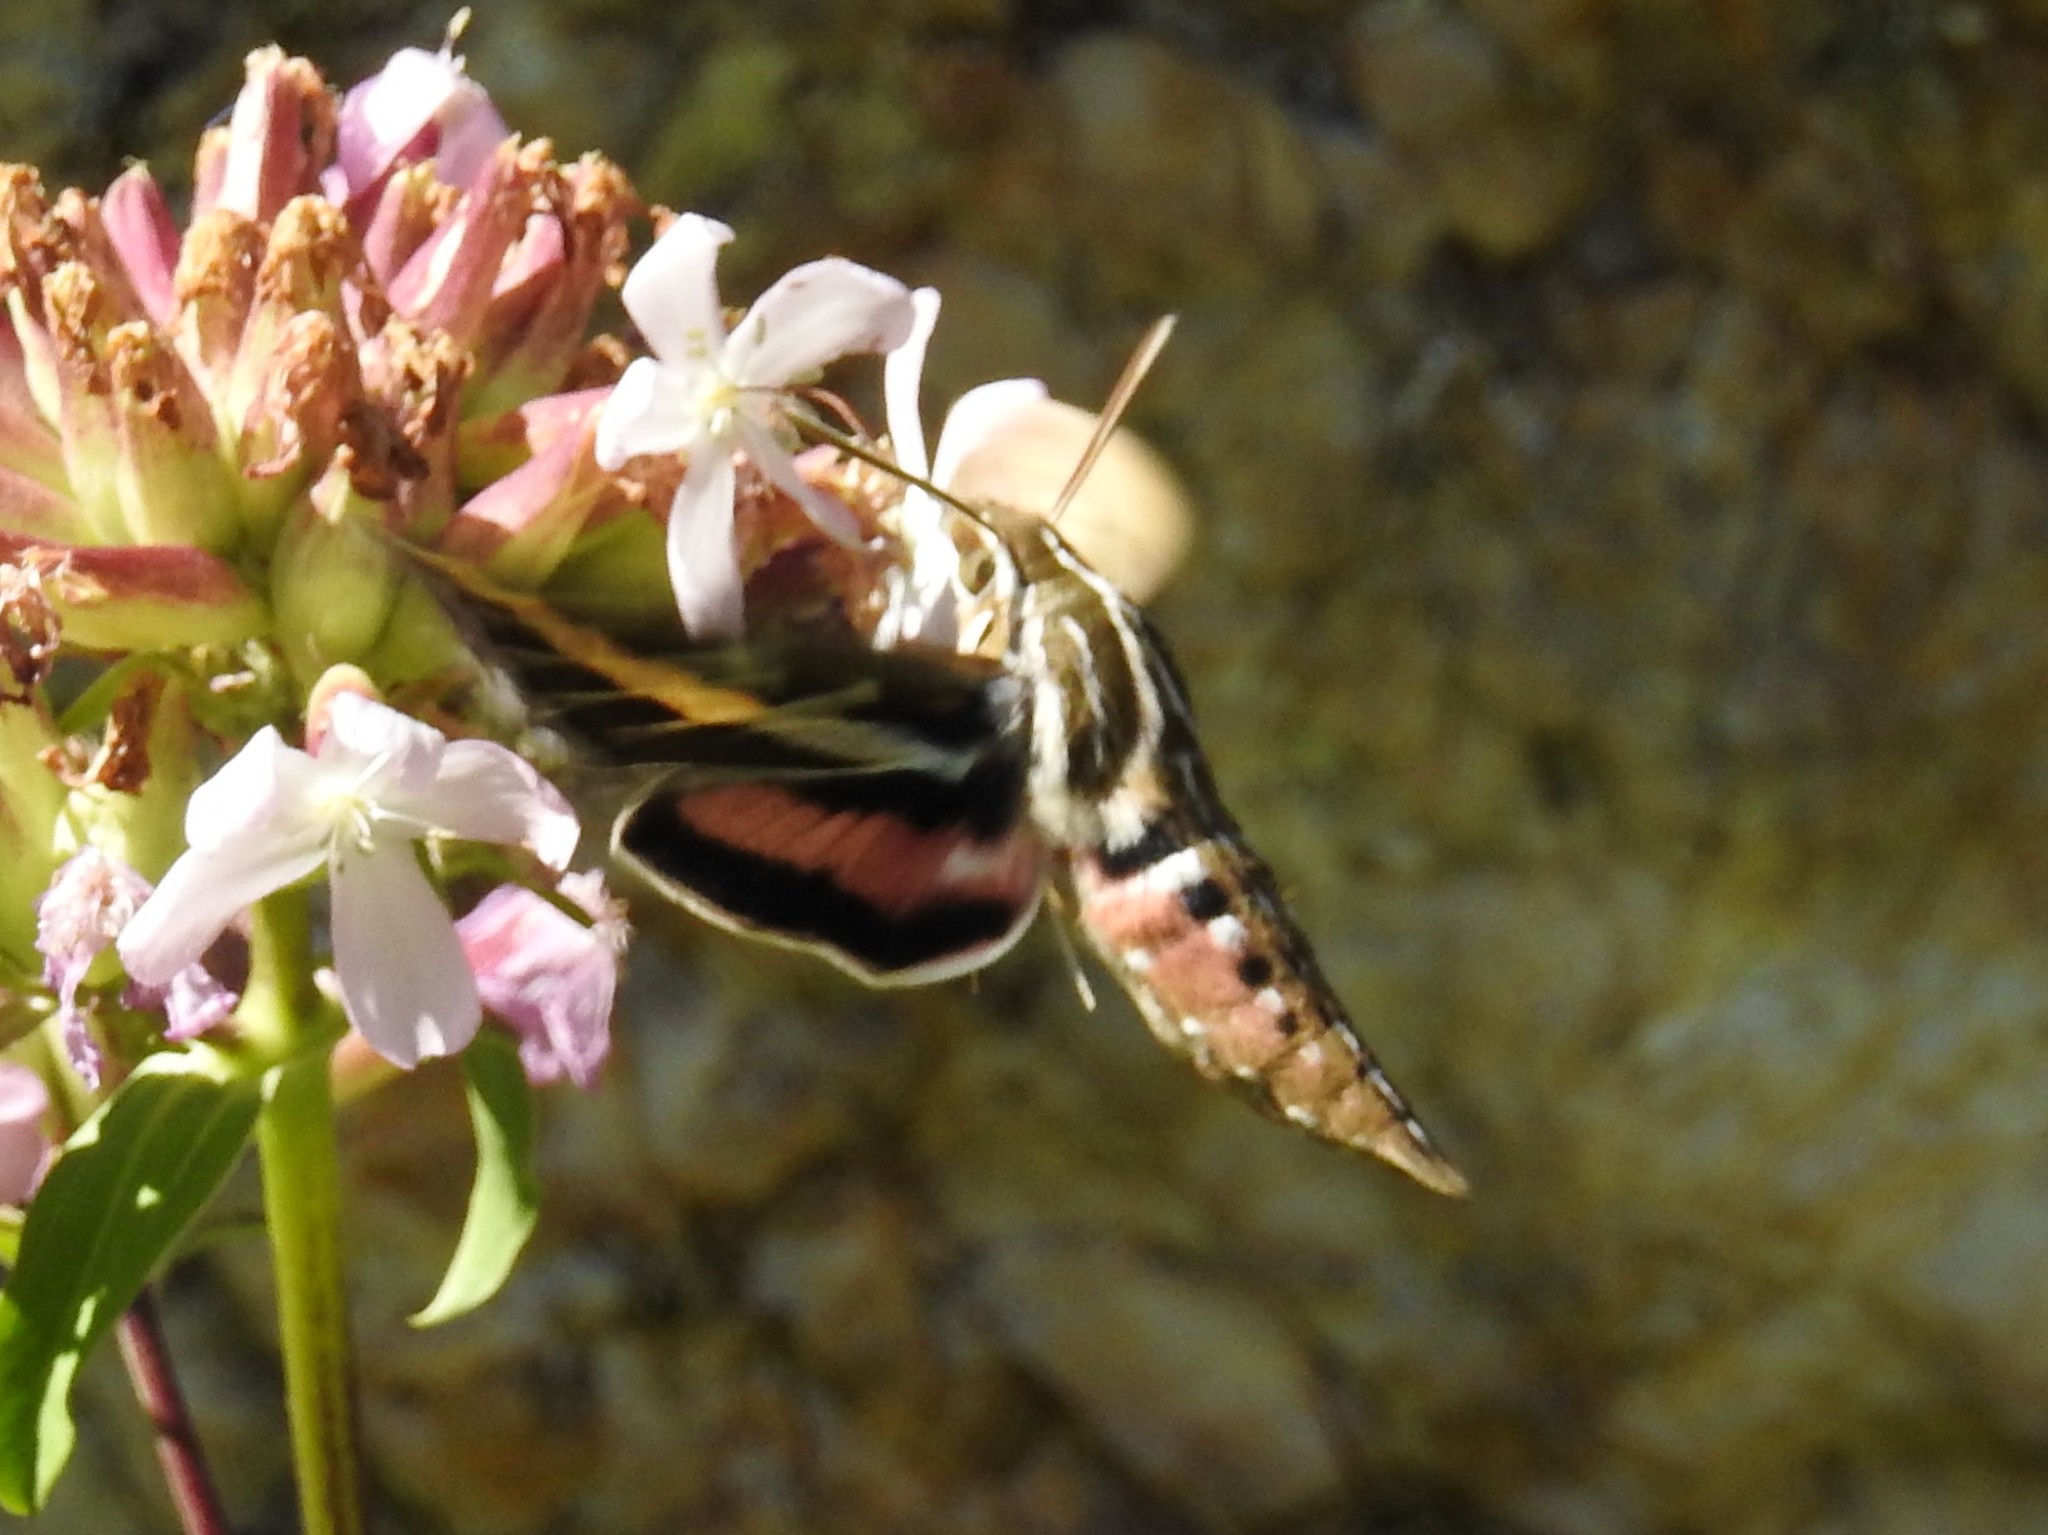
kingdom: Animalia
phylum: Arthropoda
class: Insecta
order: Lepidoptera
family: Sphingidae
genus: Hyles
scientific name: Hyles lineata
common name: White-lined sphinx
